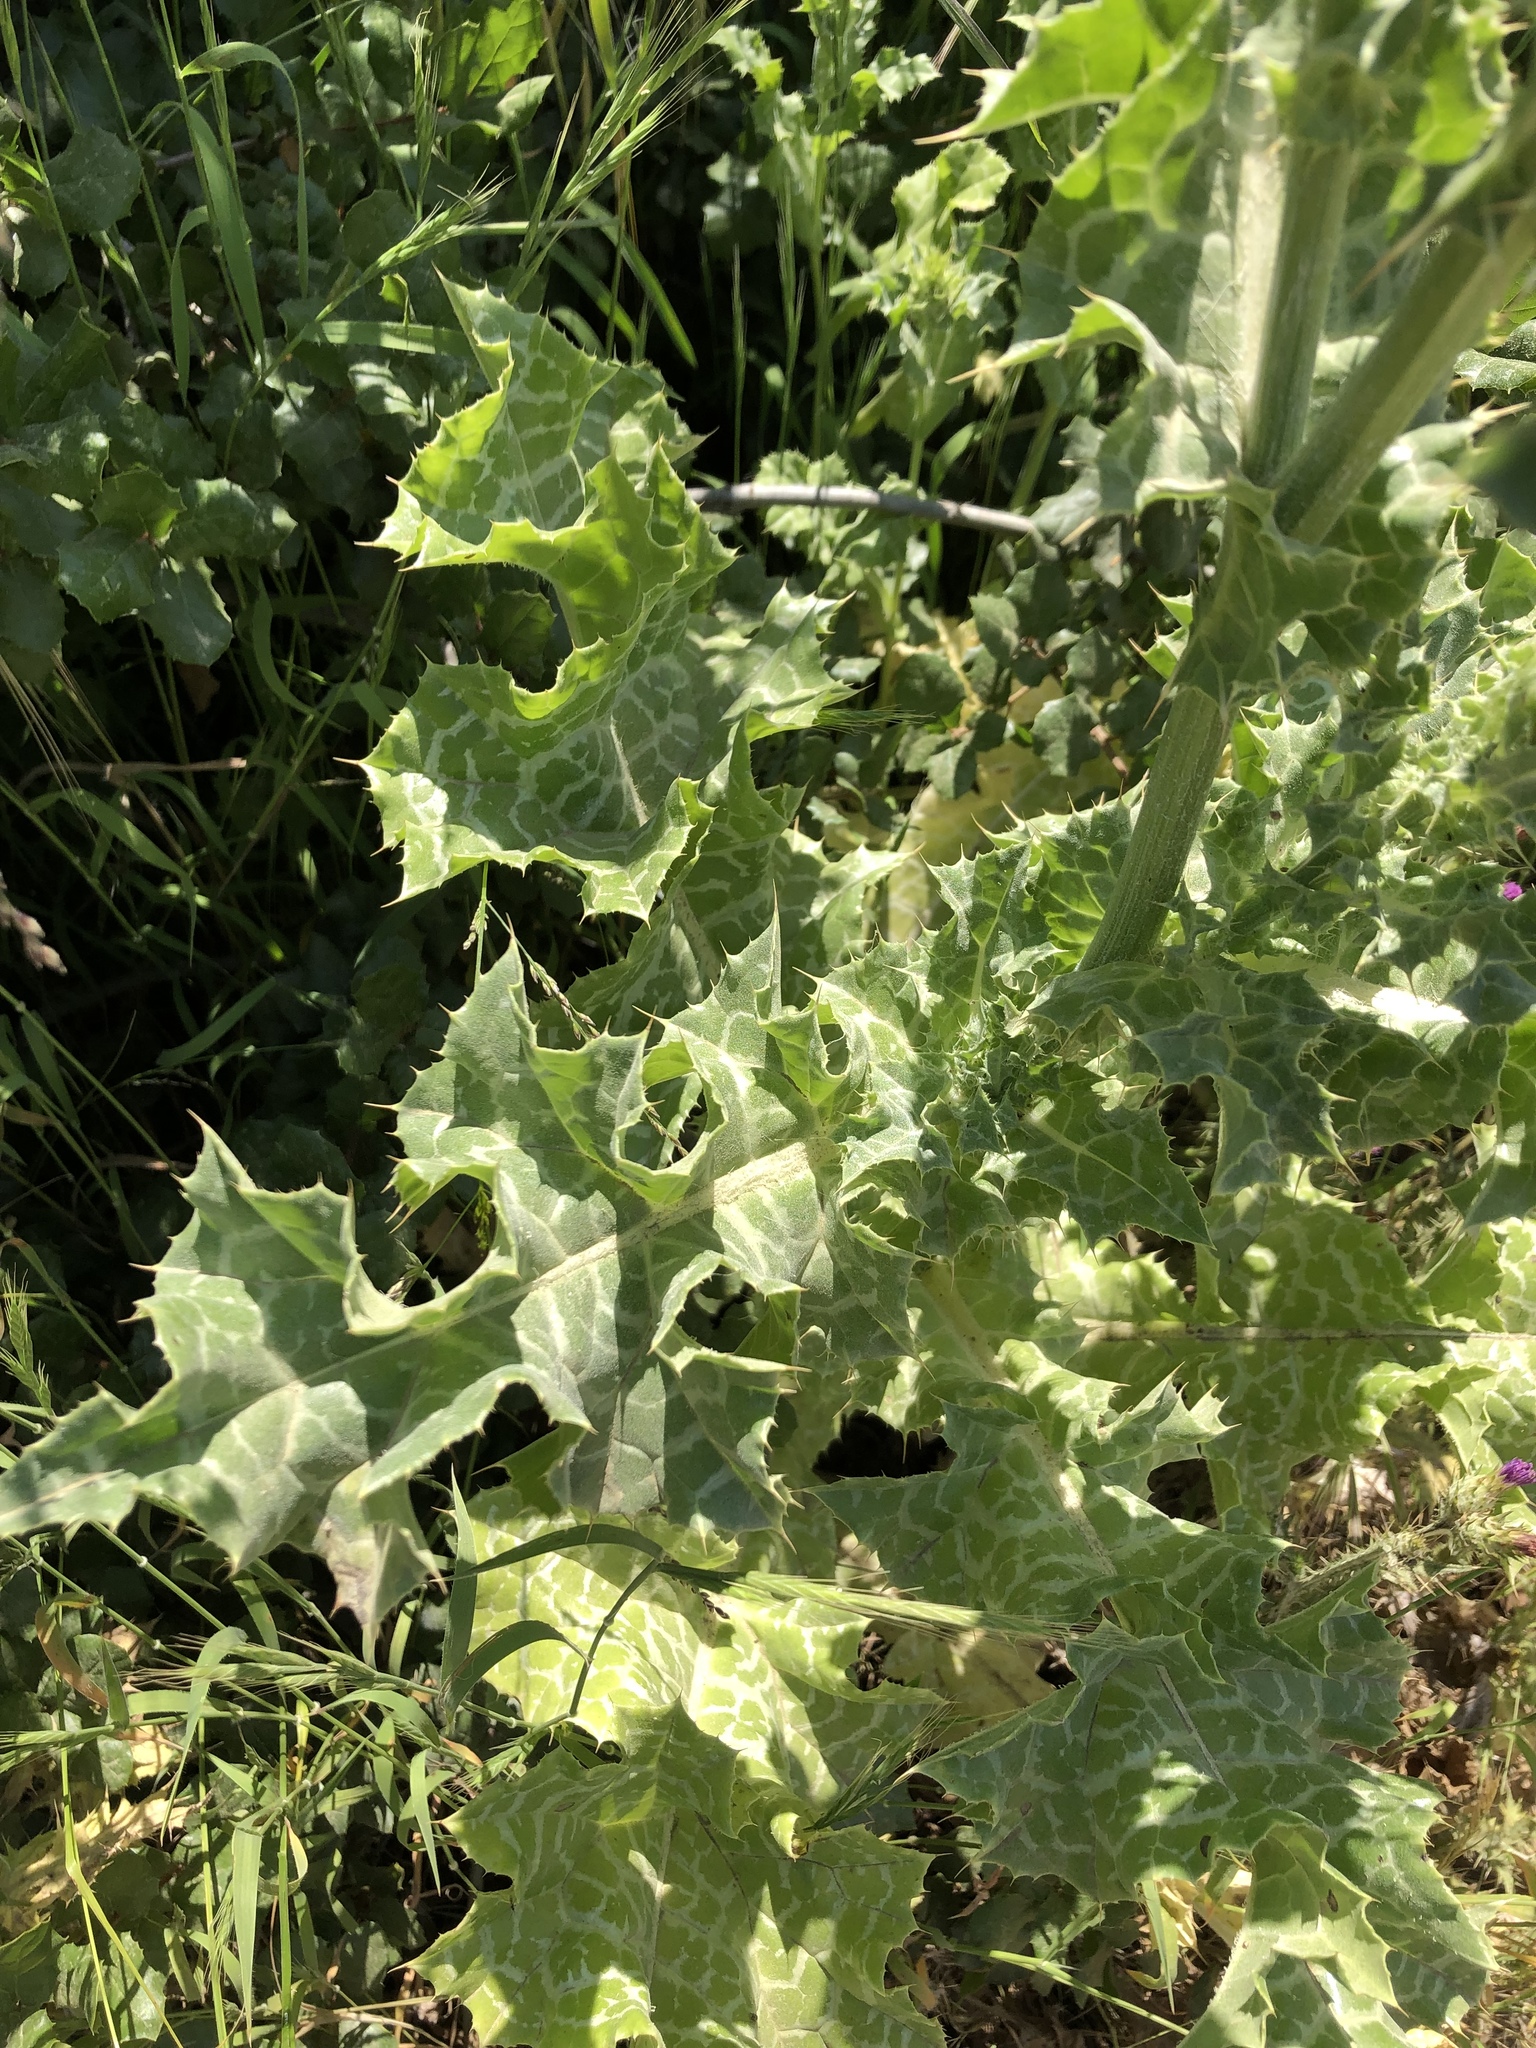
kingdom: Plantae
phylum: Tracheophyta
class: Magnoliopsida
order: Asterales
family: Asteraceae
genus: Silybum
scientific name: Silybum marianum
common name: Milk thistle
